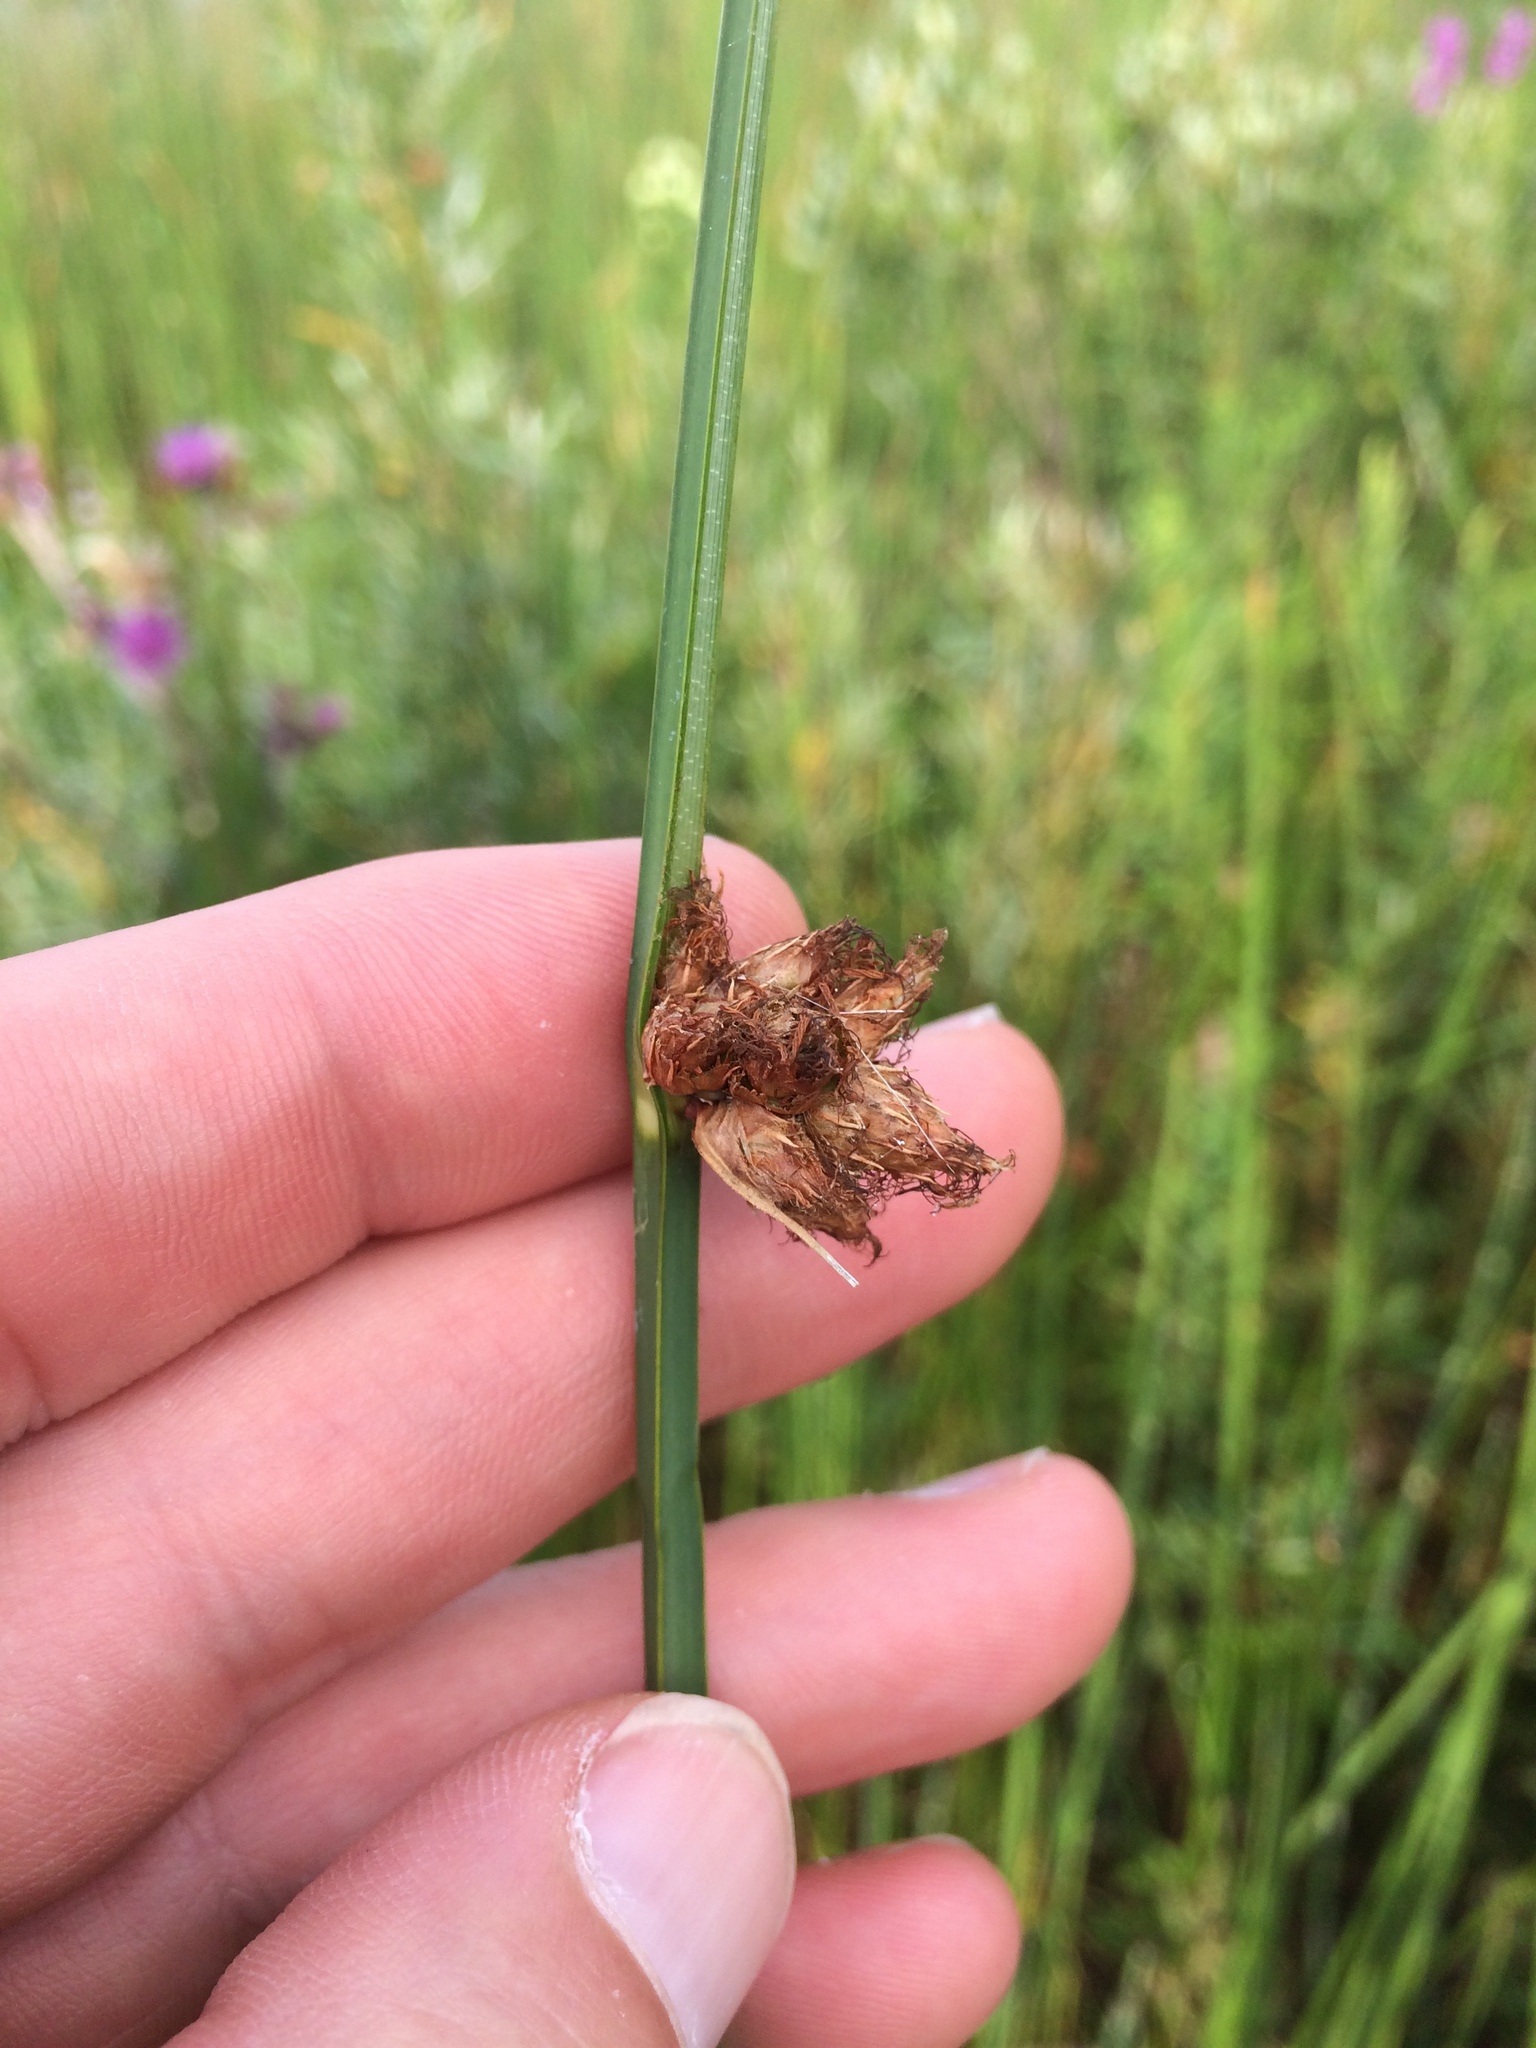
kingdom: Plantae
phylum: Tracheophyta
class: Liliopsida
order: Poales
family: Cyperaceae
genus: Schoenoplectus
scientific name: Schoenoplectus pungens
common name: Sharp club-rush
